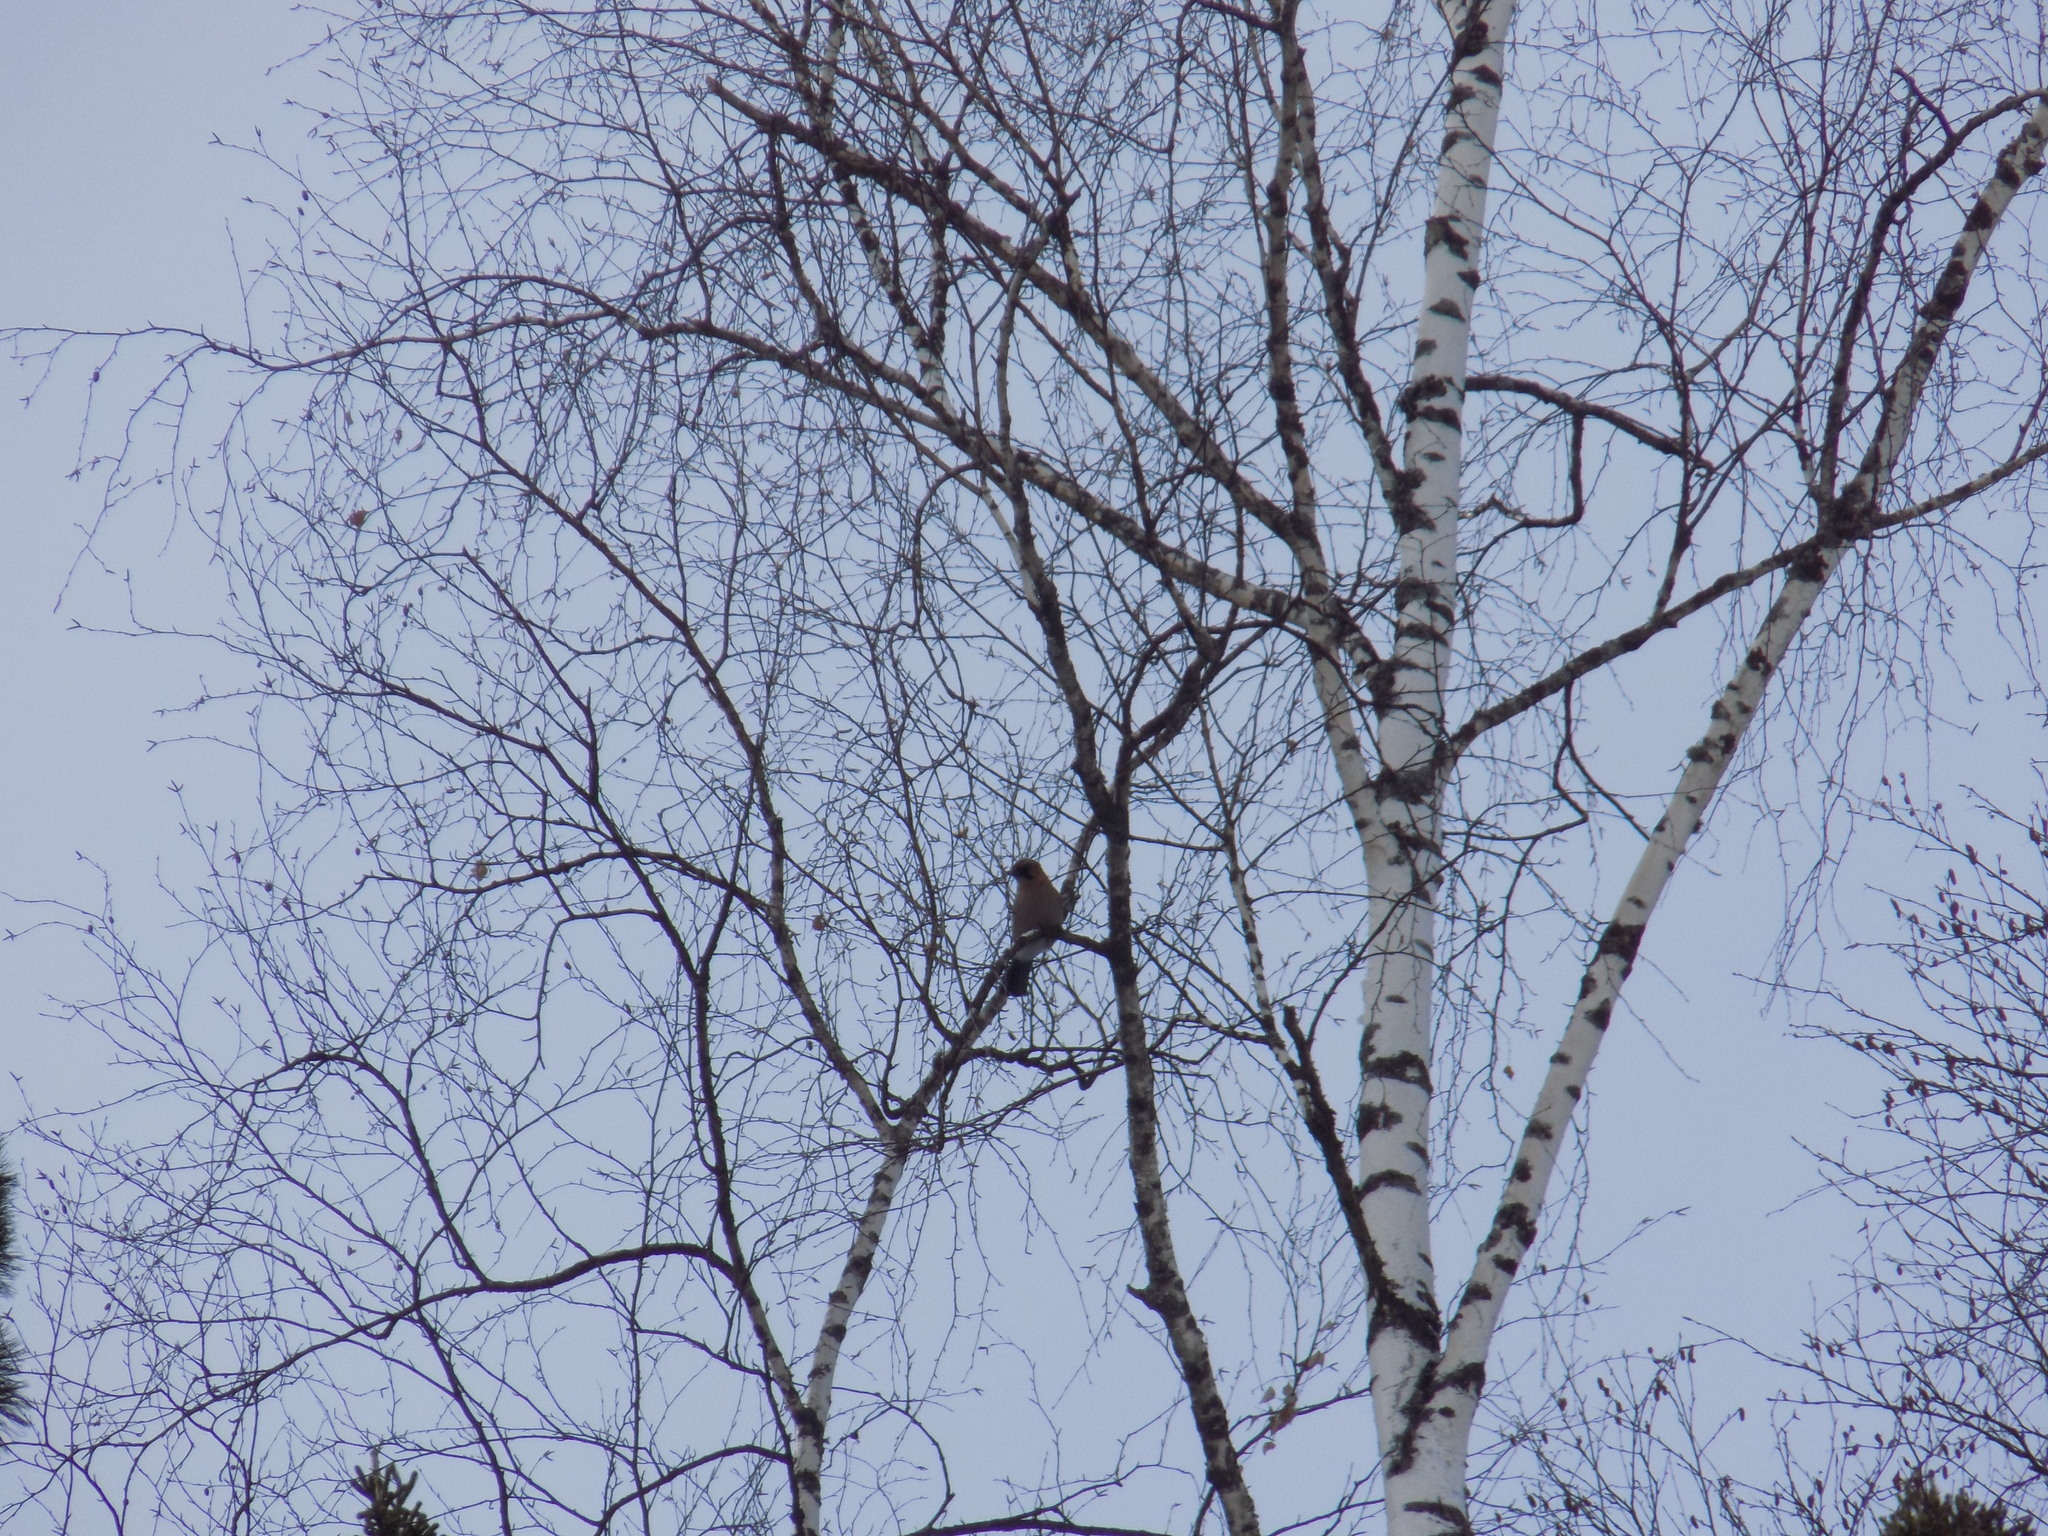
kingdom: Animalia
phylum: Chordata
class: Aves
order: Passeriformes
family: Corvidae
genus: Garrulus
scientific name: Garrulus glandarius
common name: Eurasian jay
